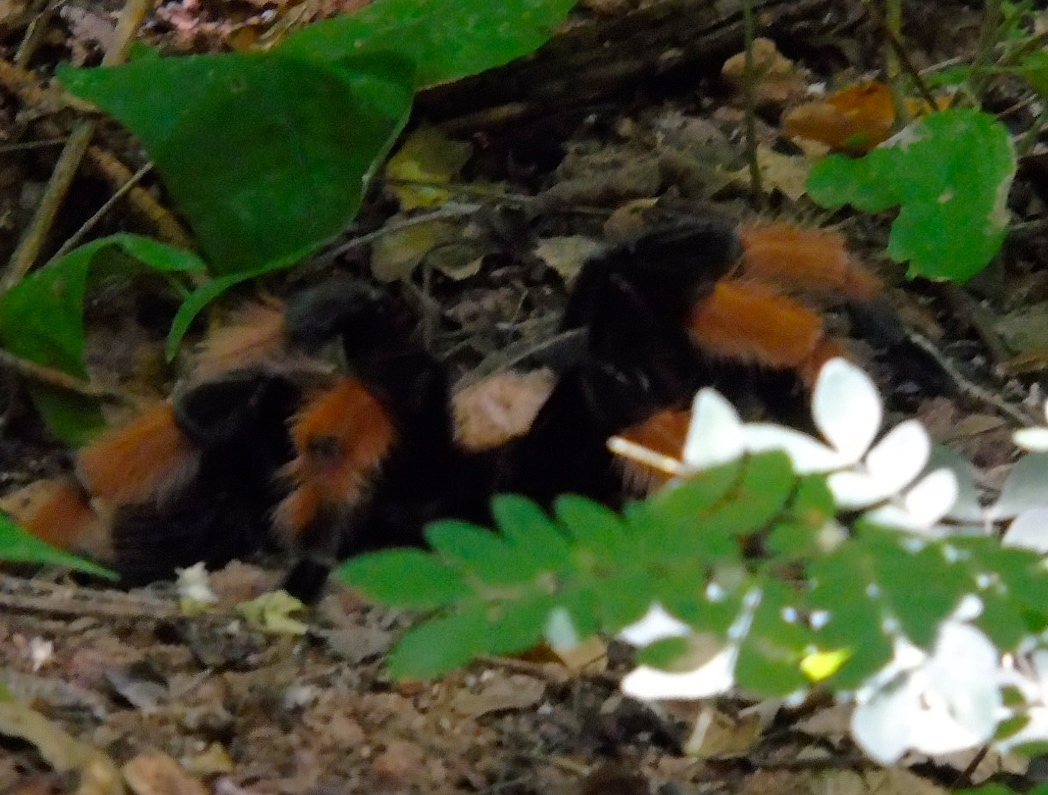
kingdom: Animalia
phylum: Arthropoda
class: Arachnida
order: Araneae
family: Theraphosidae
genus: Brachypelma
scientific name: Brachypelma emilia
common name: Mexican redleg
